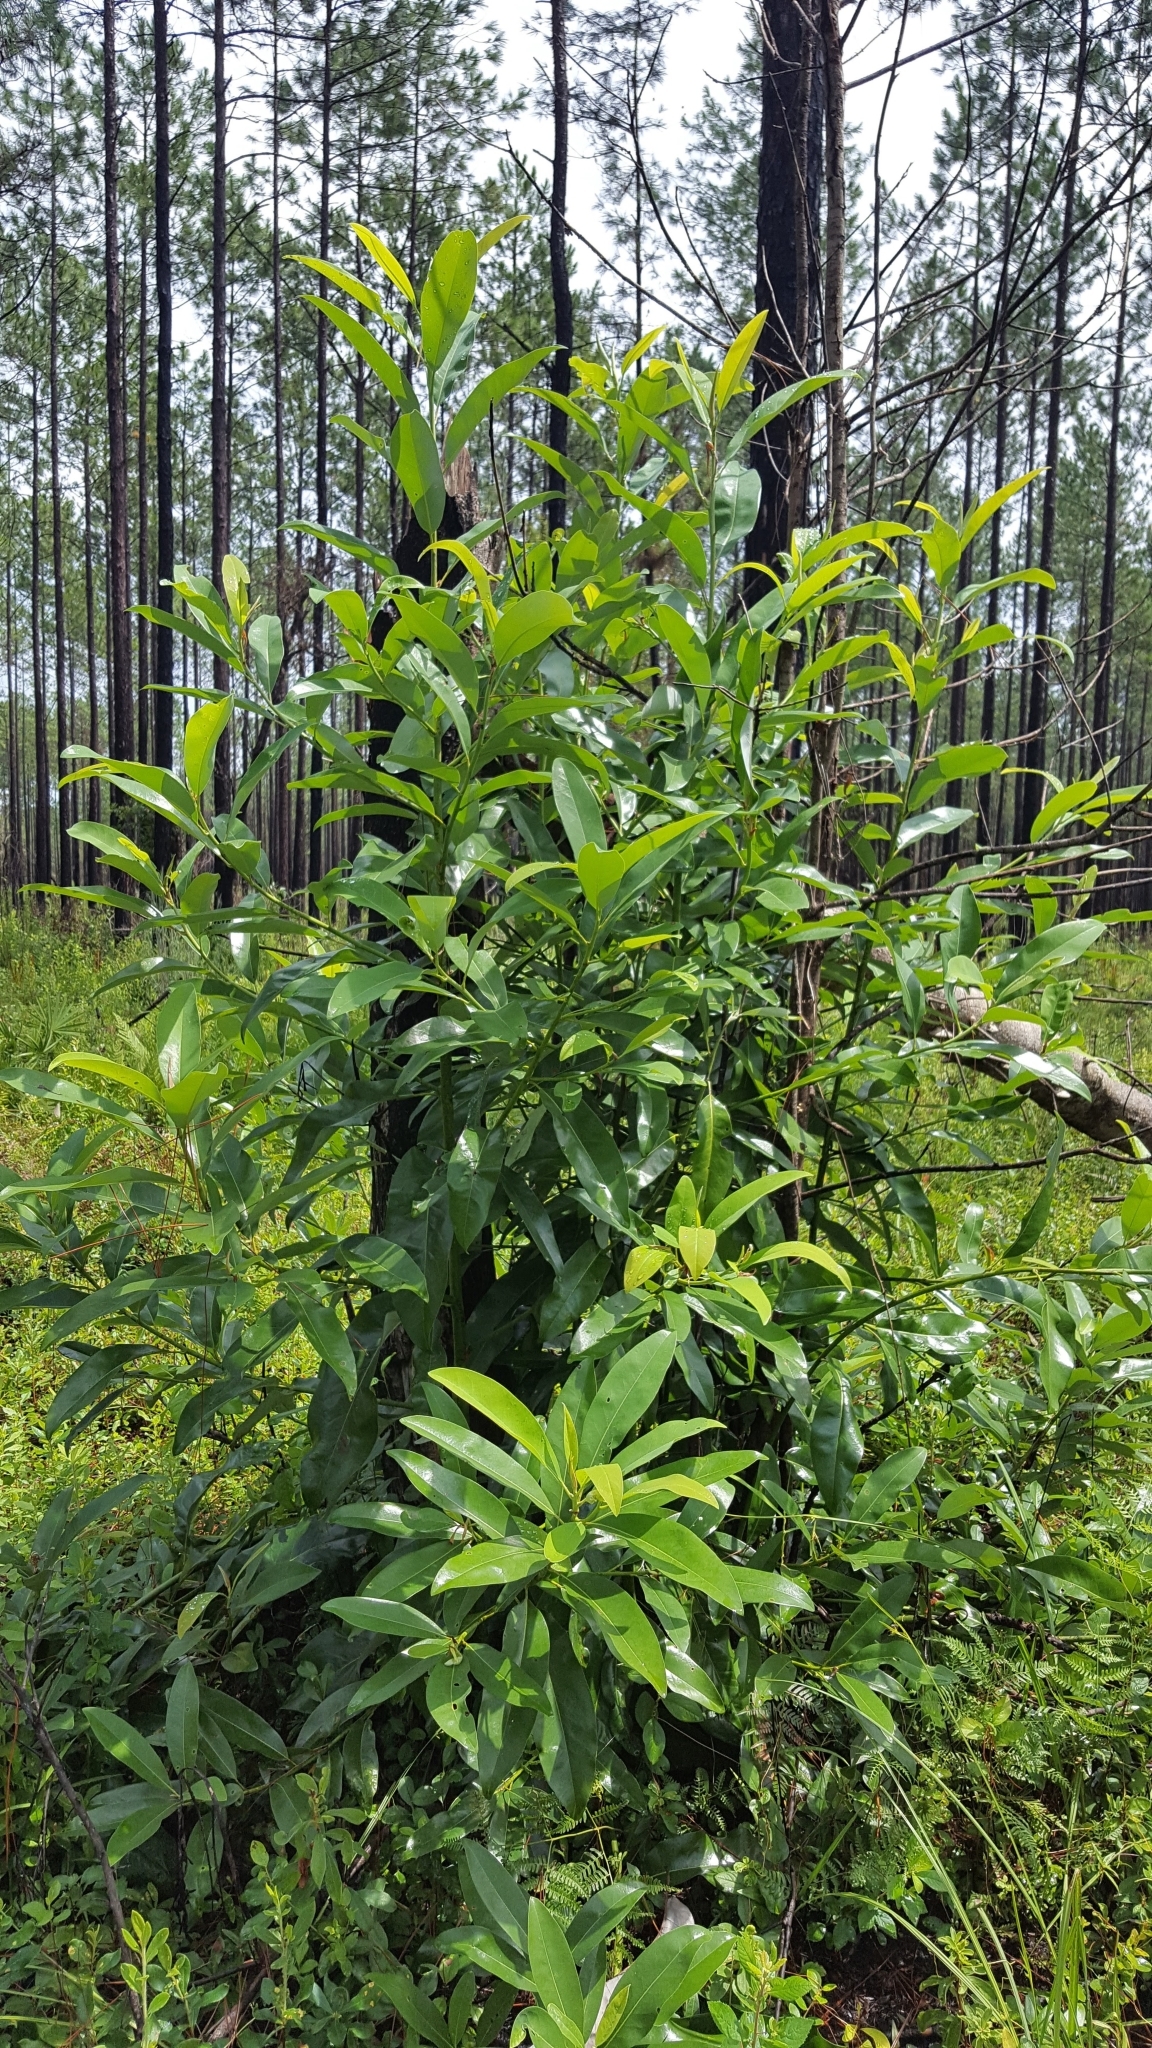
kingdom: Plantae
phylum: Tracheophyta
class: Magnoliopsida
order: Magnoliales
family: Magnoliaceae
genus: Magnolia
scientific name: Magnolia virginiana
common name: Swamp bay
